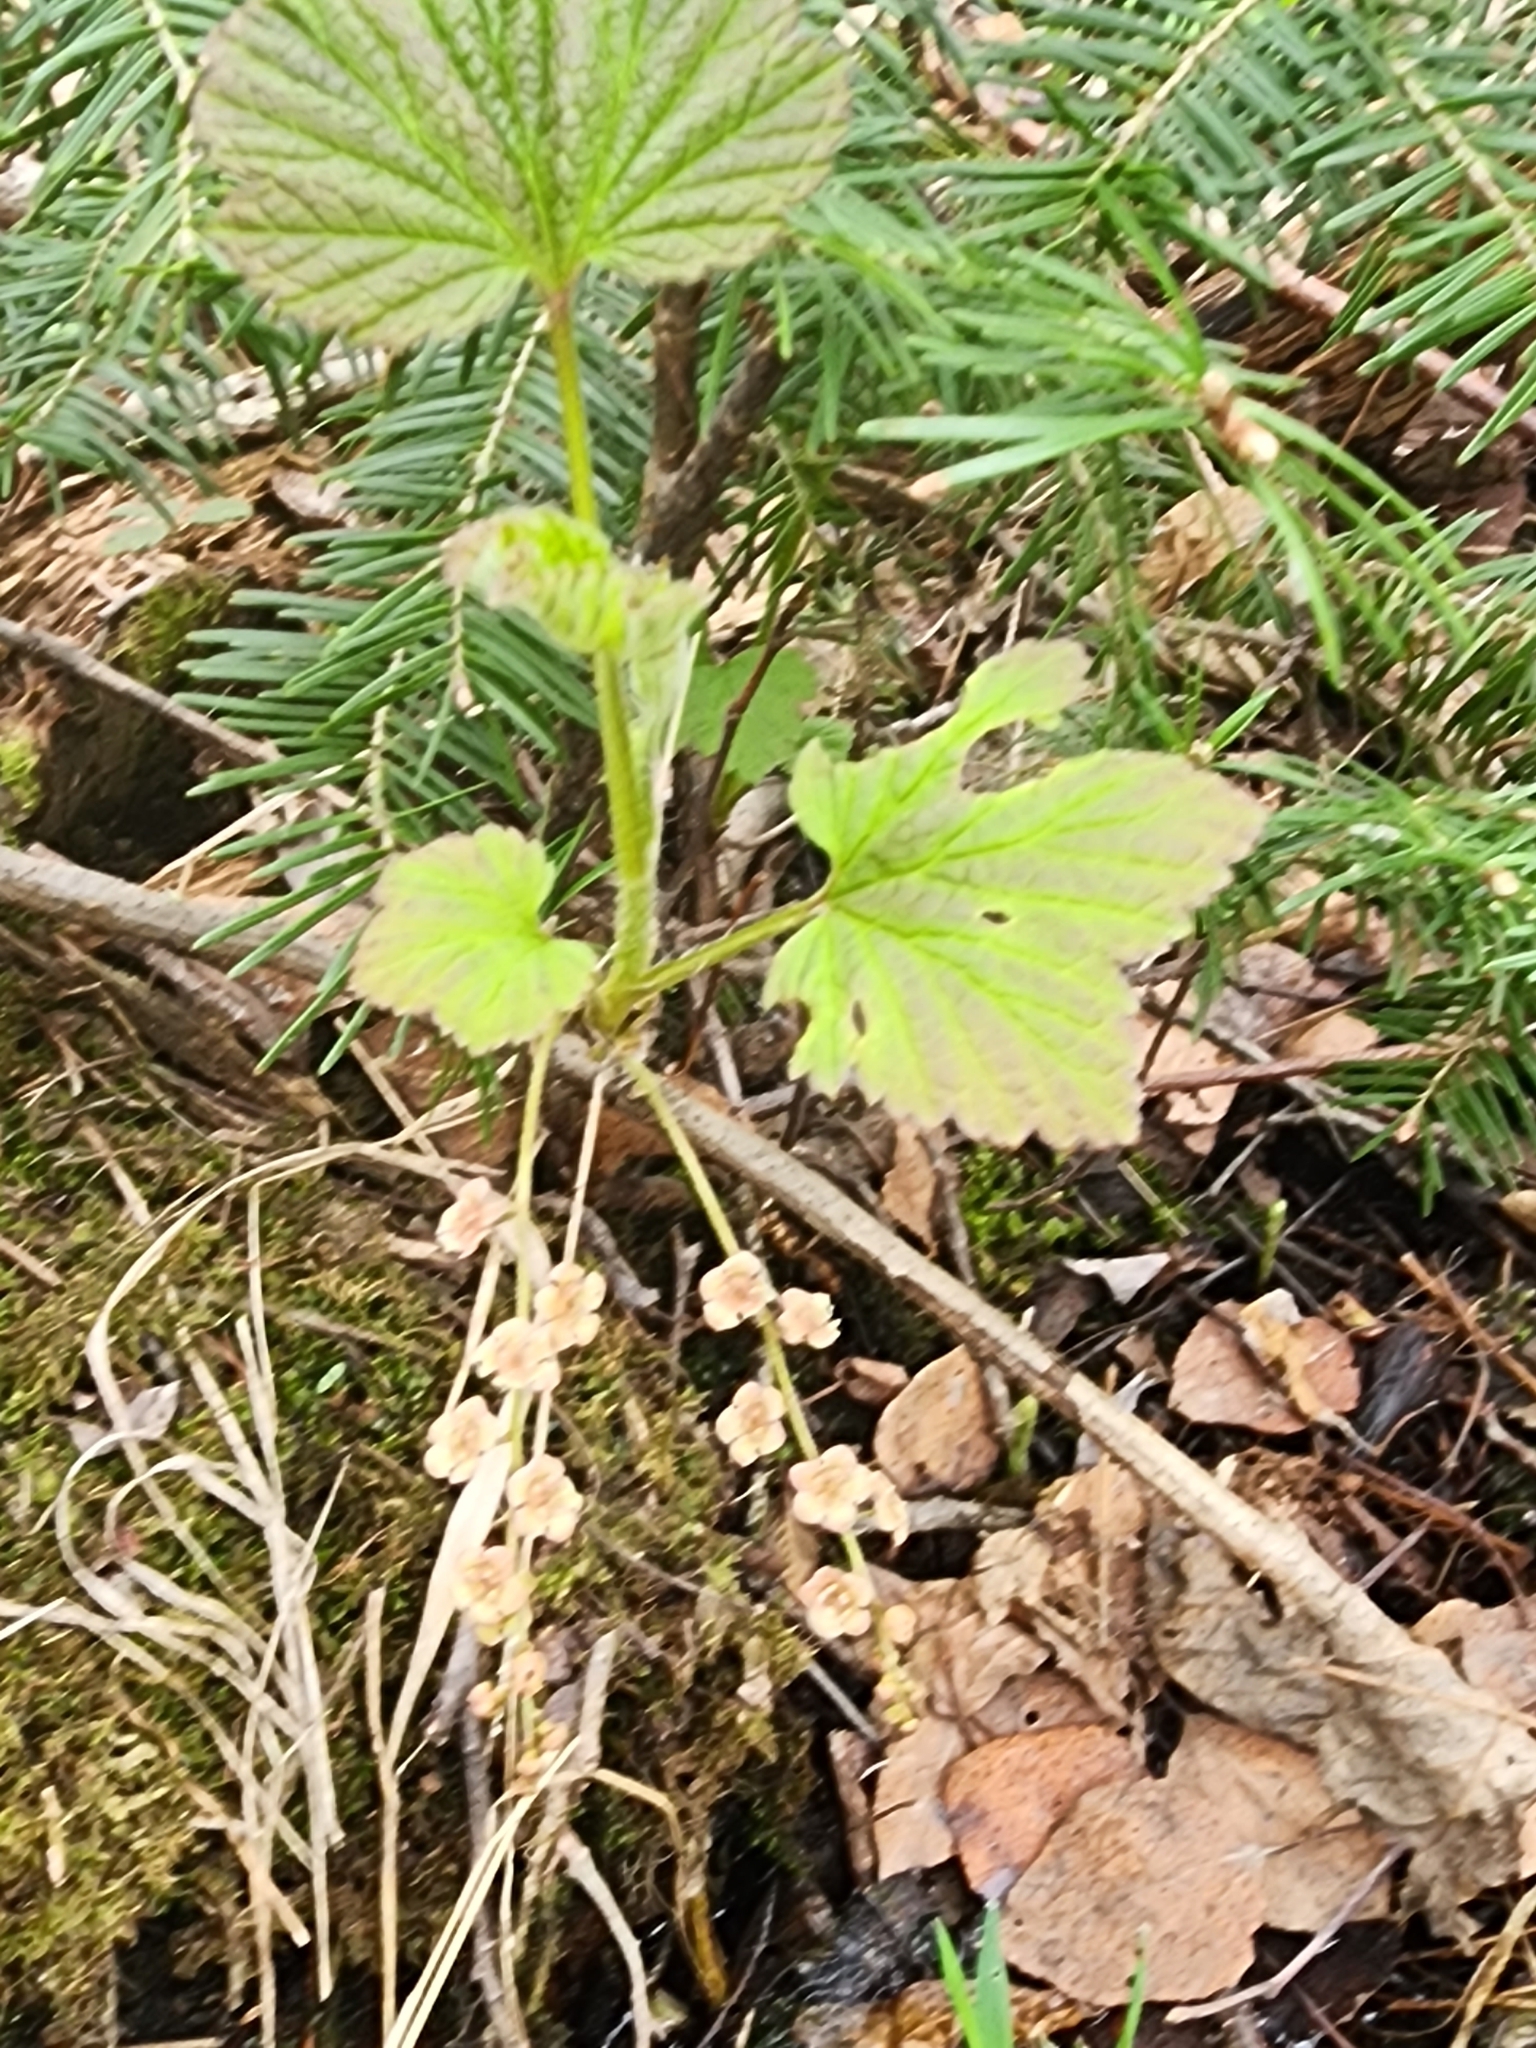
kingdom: Plantae
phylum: Tracheophyta
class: Magnoliopsida
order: Saxifragales
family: Grossulariaceae
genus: Ribes
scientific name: Ribes triste
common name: Swamp red currant
